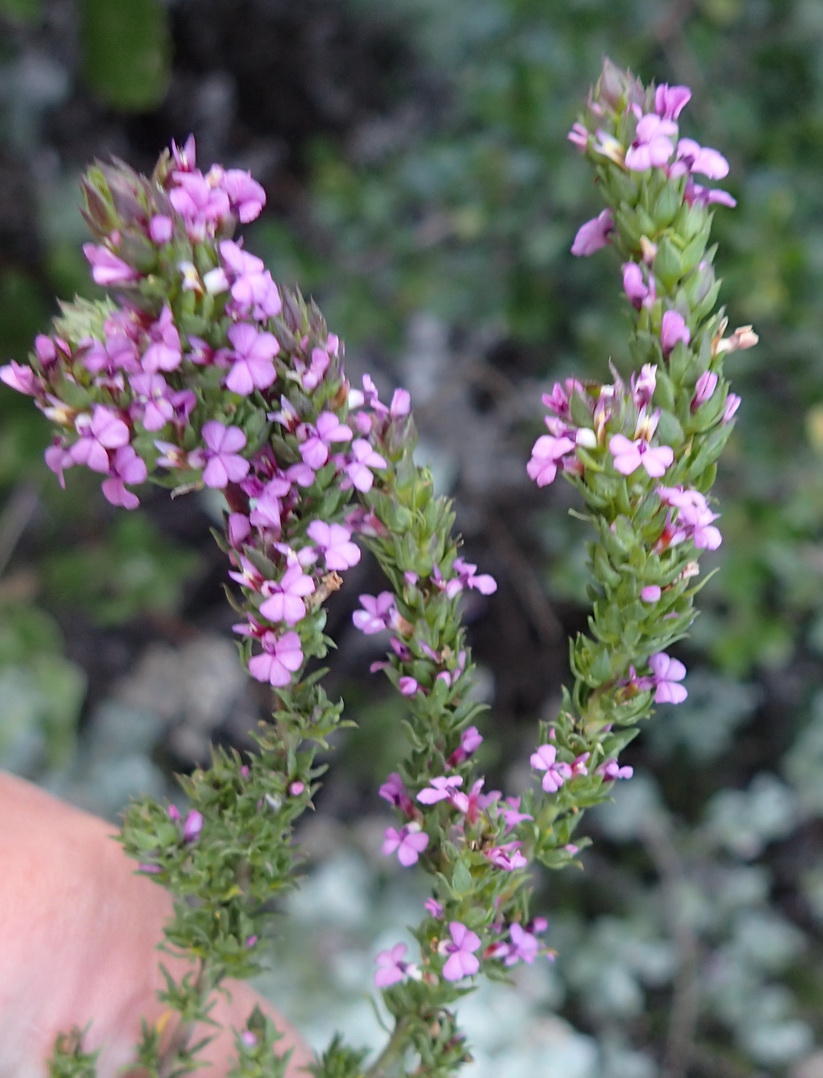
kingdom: Plantae
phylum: Tracheophyta
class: Magnoliopsida
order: Fabales
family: Polygalaceae
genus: Muraltia
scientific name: Muraltia squarrosa
